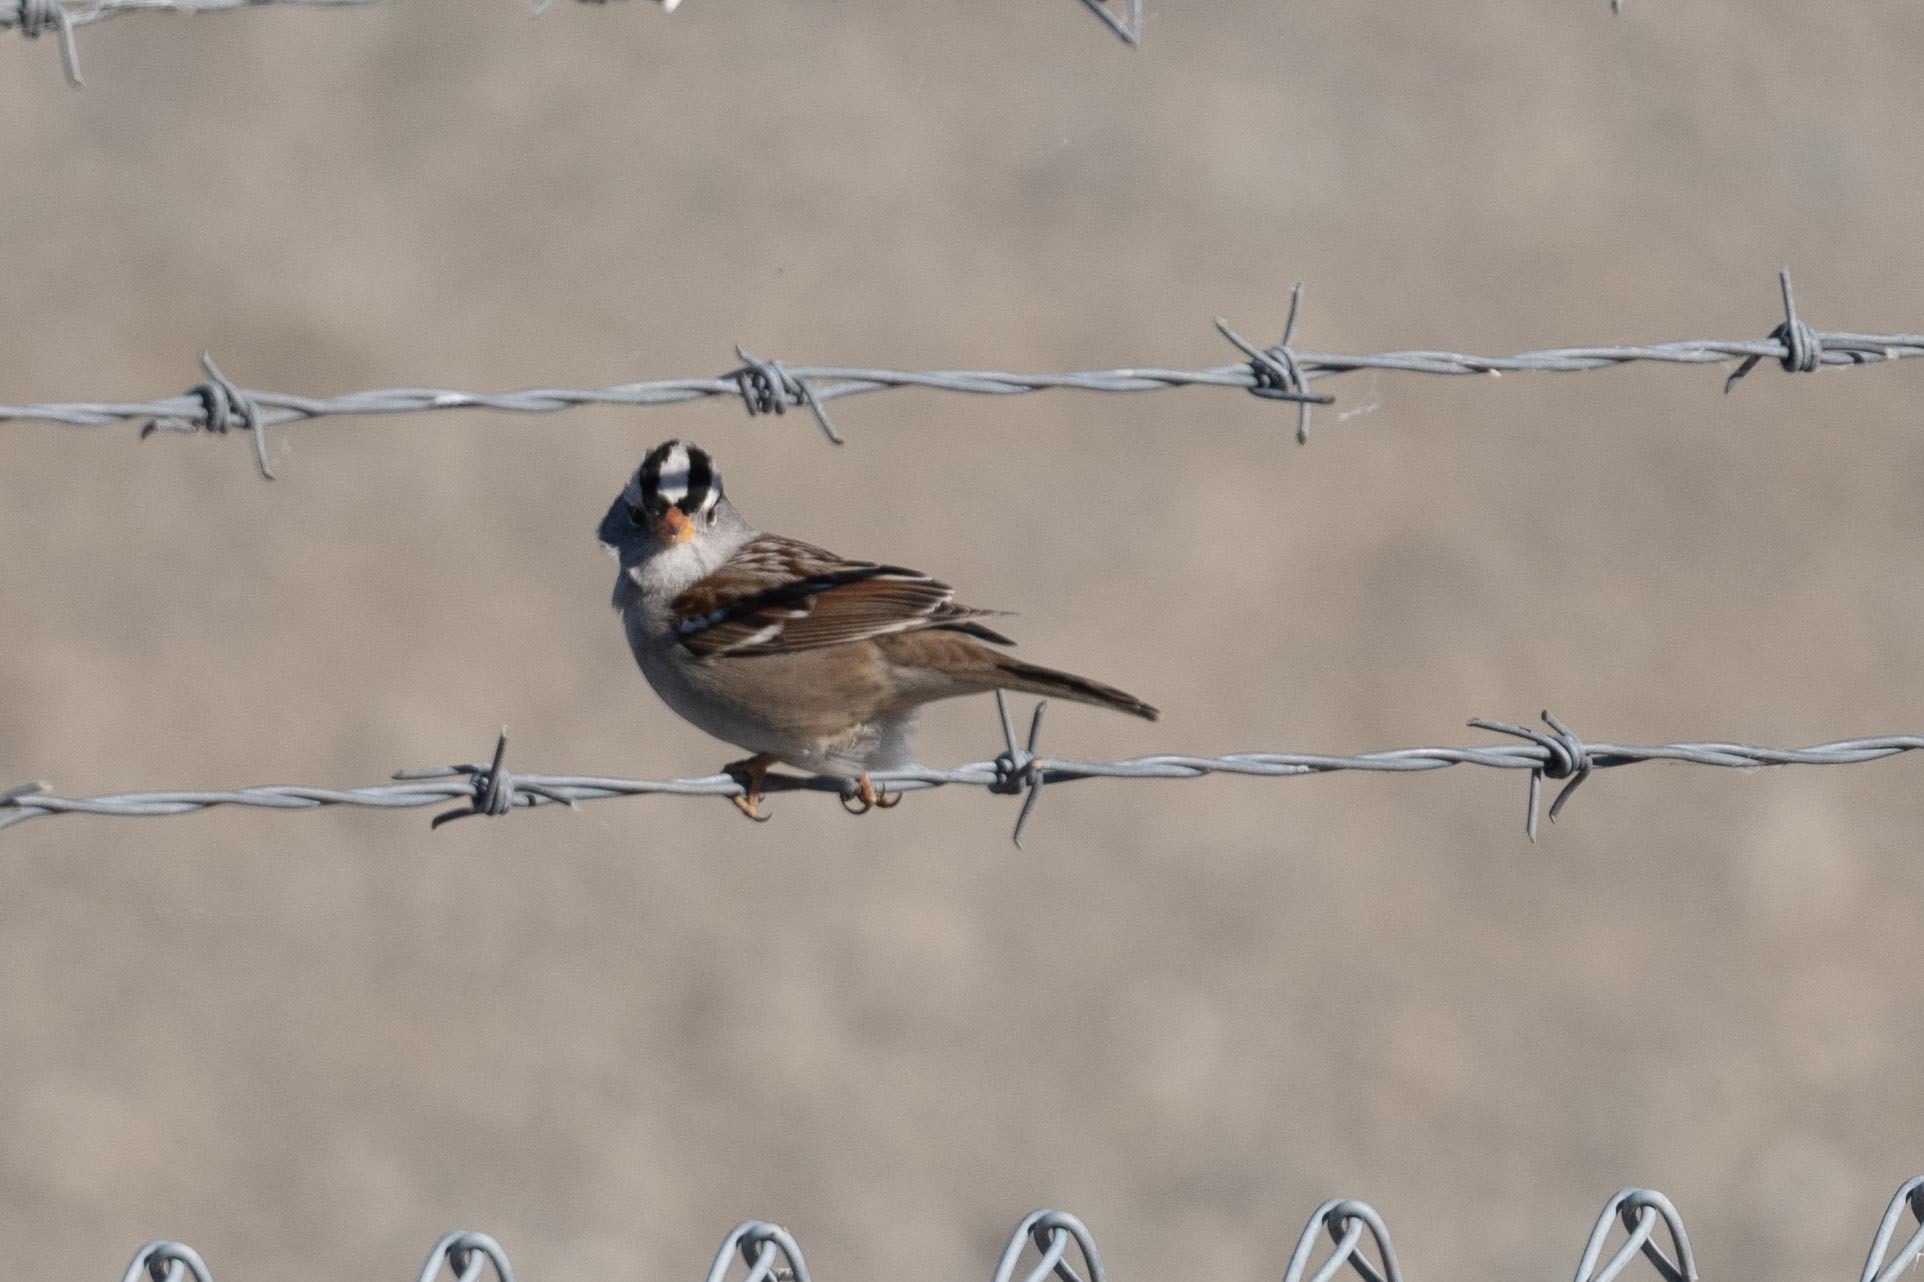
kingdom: Animalia
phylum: Chordata
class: Aves
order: Passeriformes
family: Passerellidae
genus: Zonotrichia
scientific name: Zonotrichia leucophrys
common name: White-crowned sparrow
